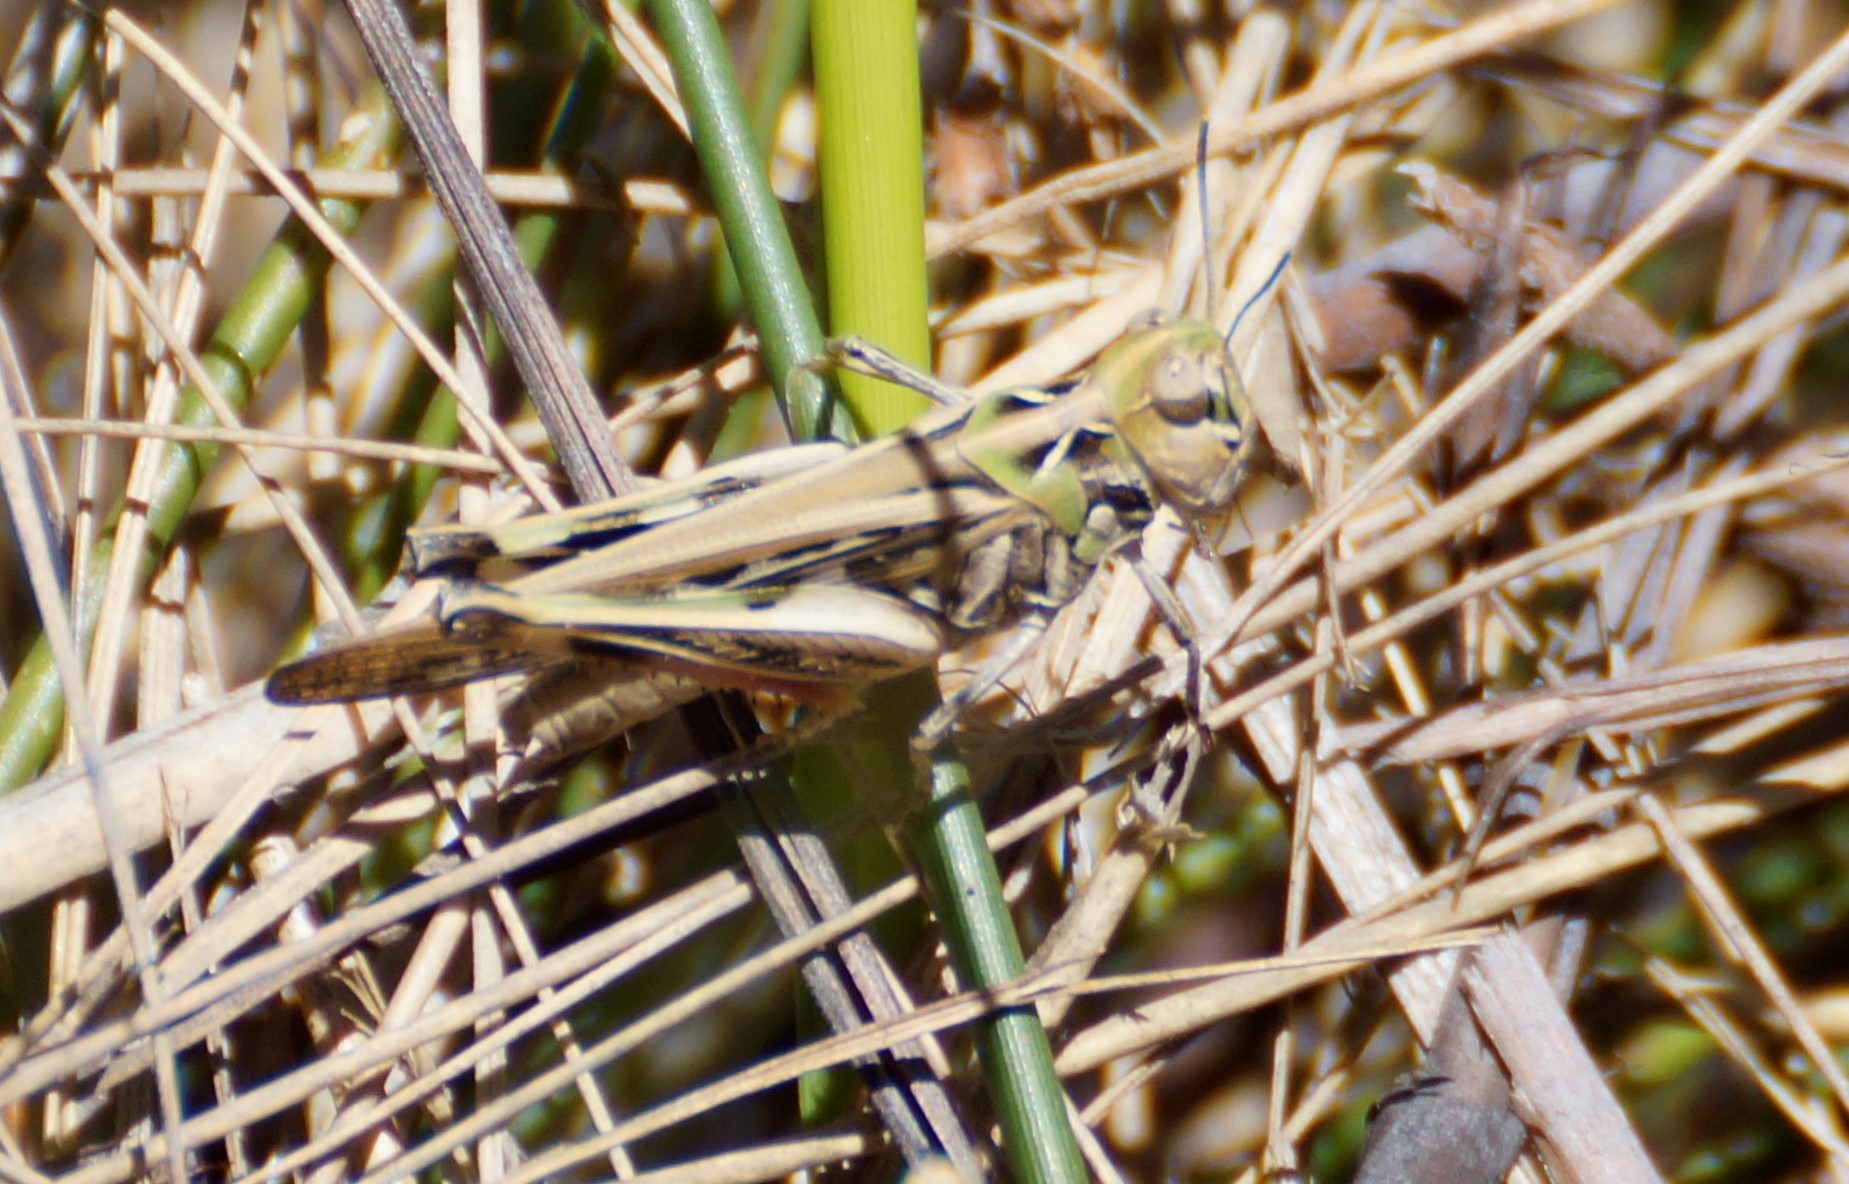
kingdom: Animalia
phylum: Arthropoda
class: Insecta
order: Orthoptera
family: Acrididae
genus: Austroicetes
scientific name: Austroicetes vulgaris
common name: Southeastern austroicetes
